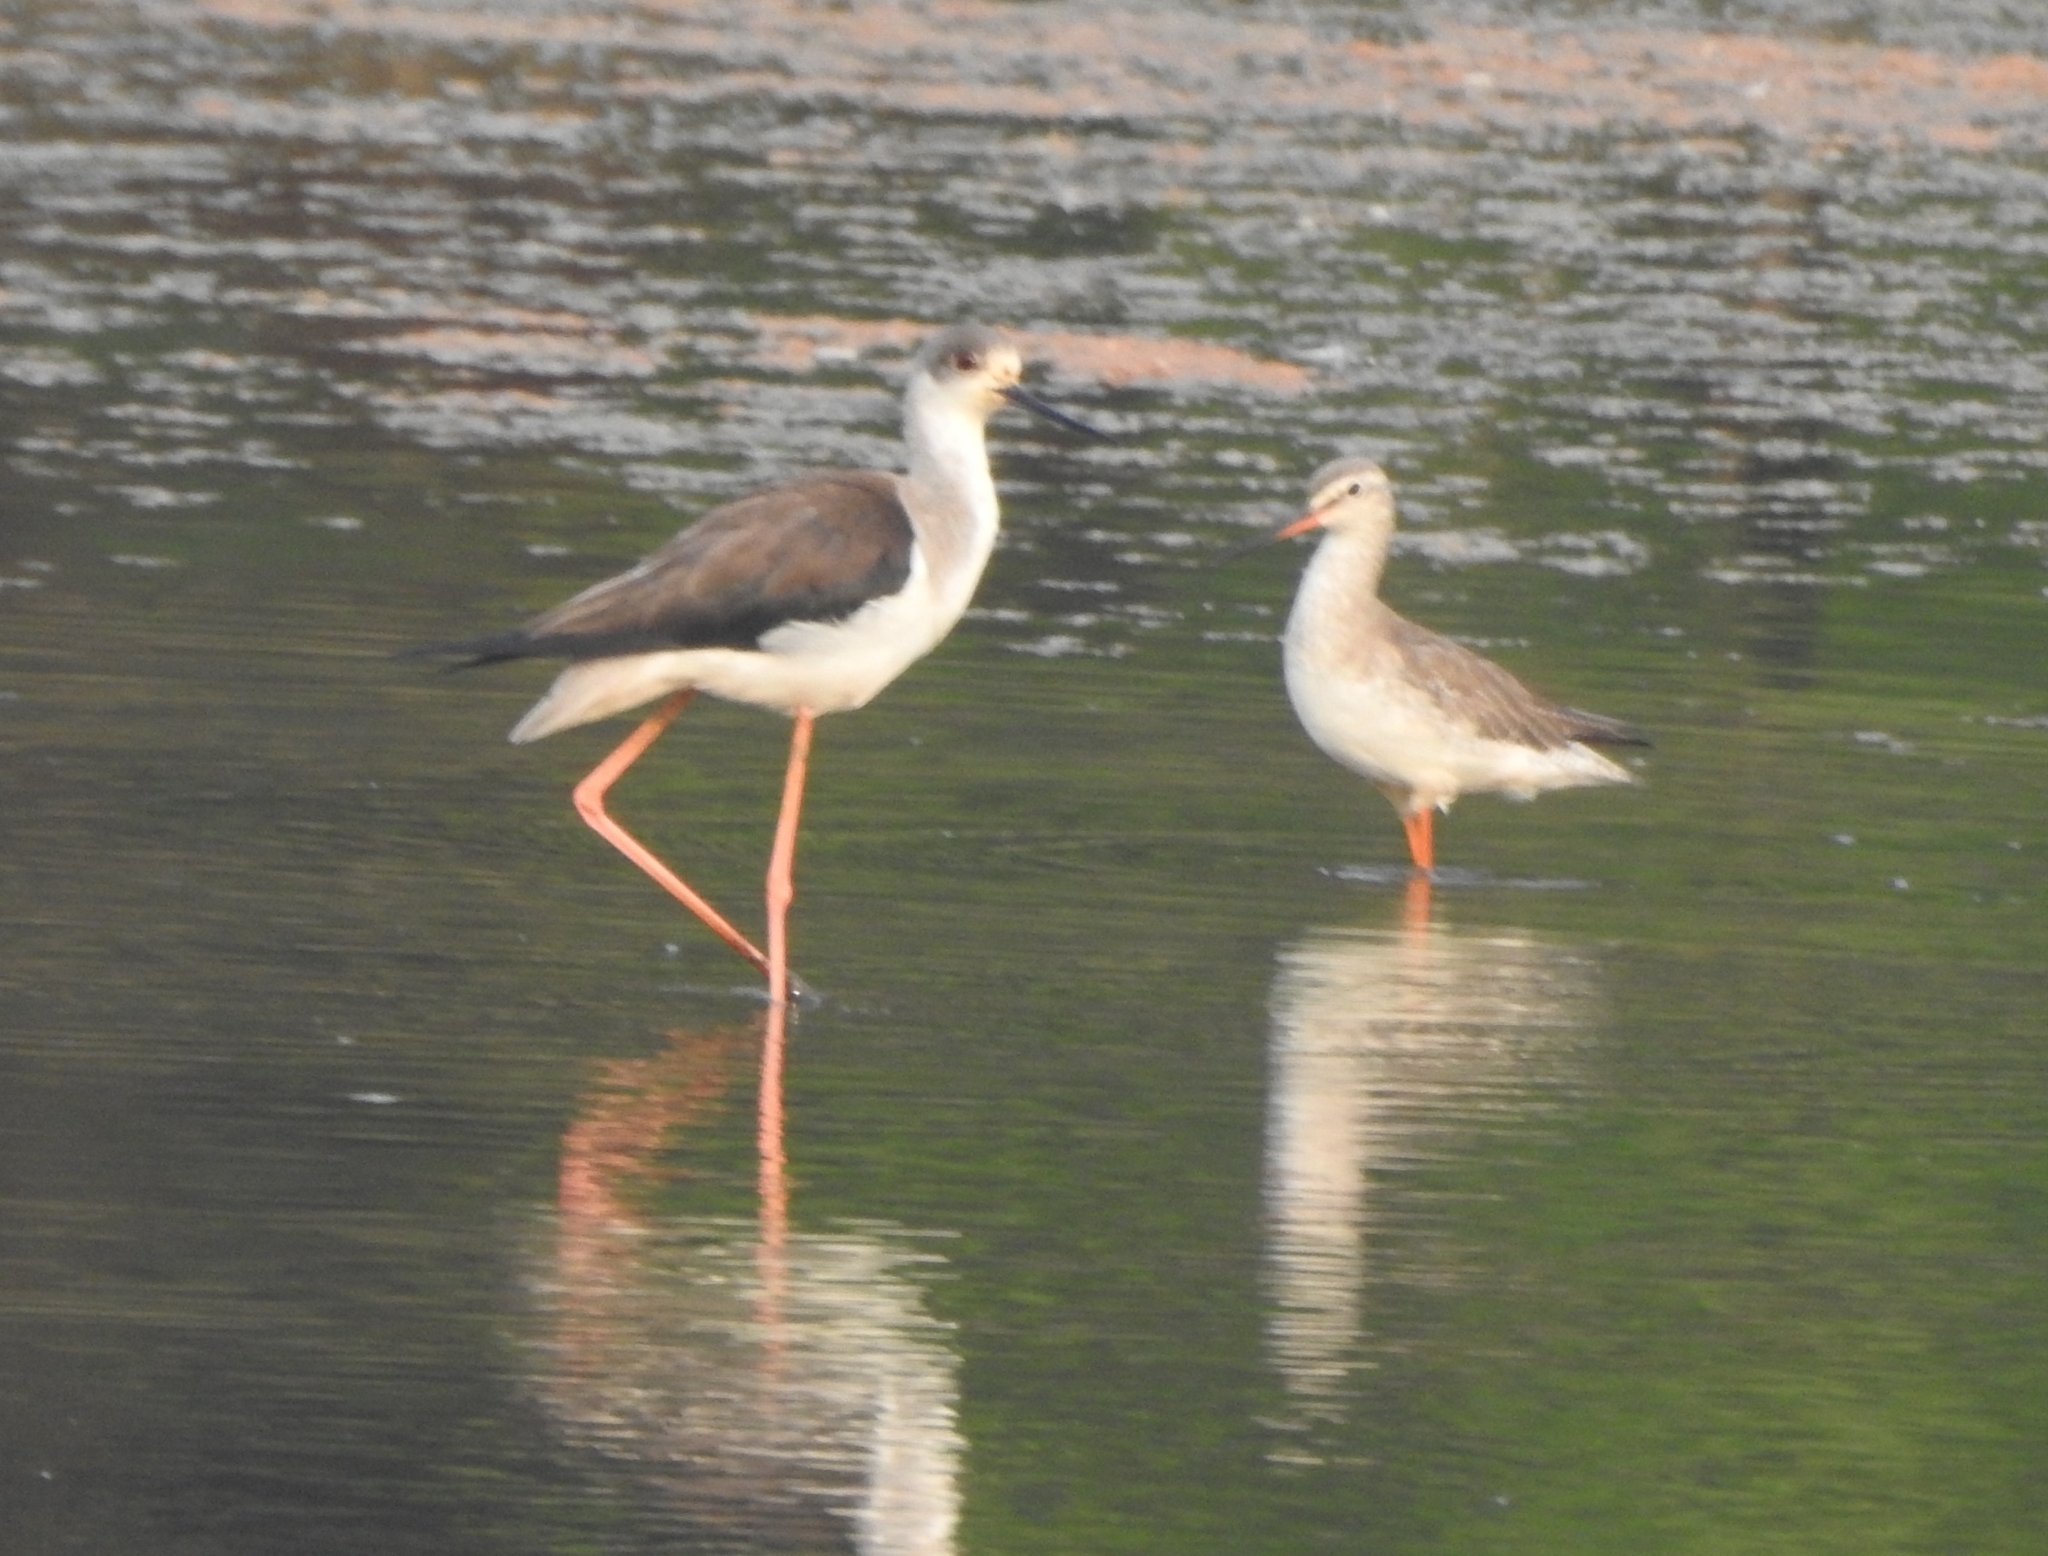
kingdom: Animalia
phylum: Chordata
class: Aves
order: Charadriiformes
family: Scolopacidae
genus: Tringa
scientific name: Tringa erythropus
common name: Spotted redshank
